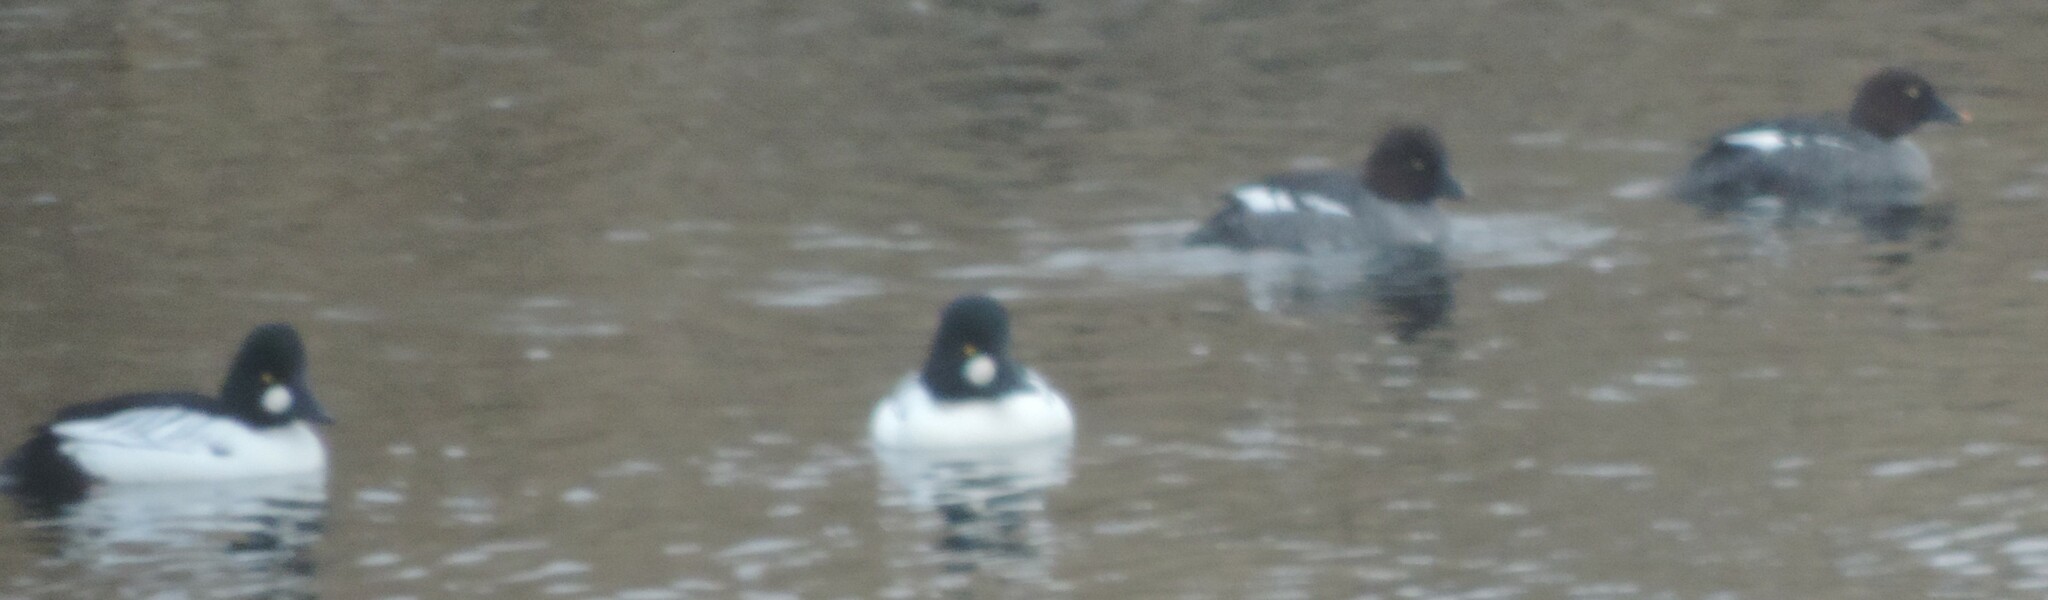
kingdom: Animalia
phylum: Chordata
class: Aves
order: Anseriformes
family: Anatidae
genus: Bucephala
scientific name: Bucephala clangula
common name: Common goldeneye
